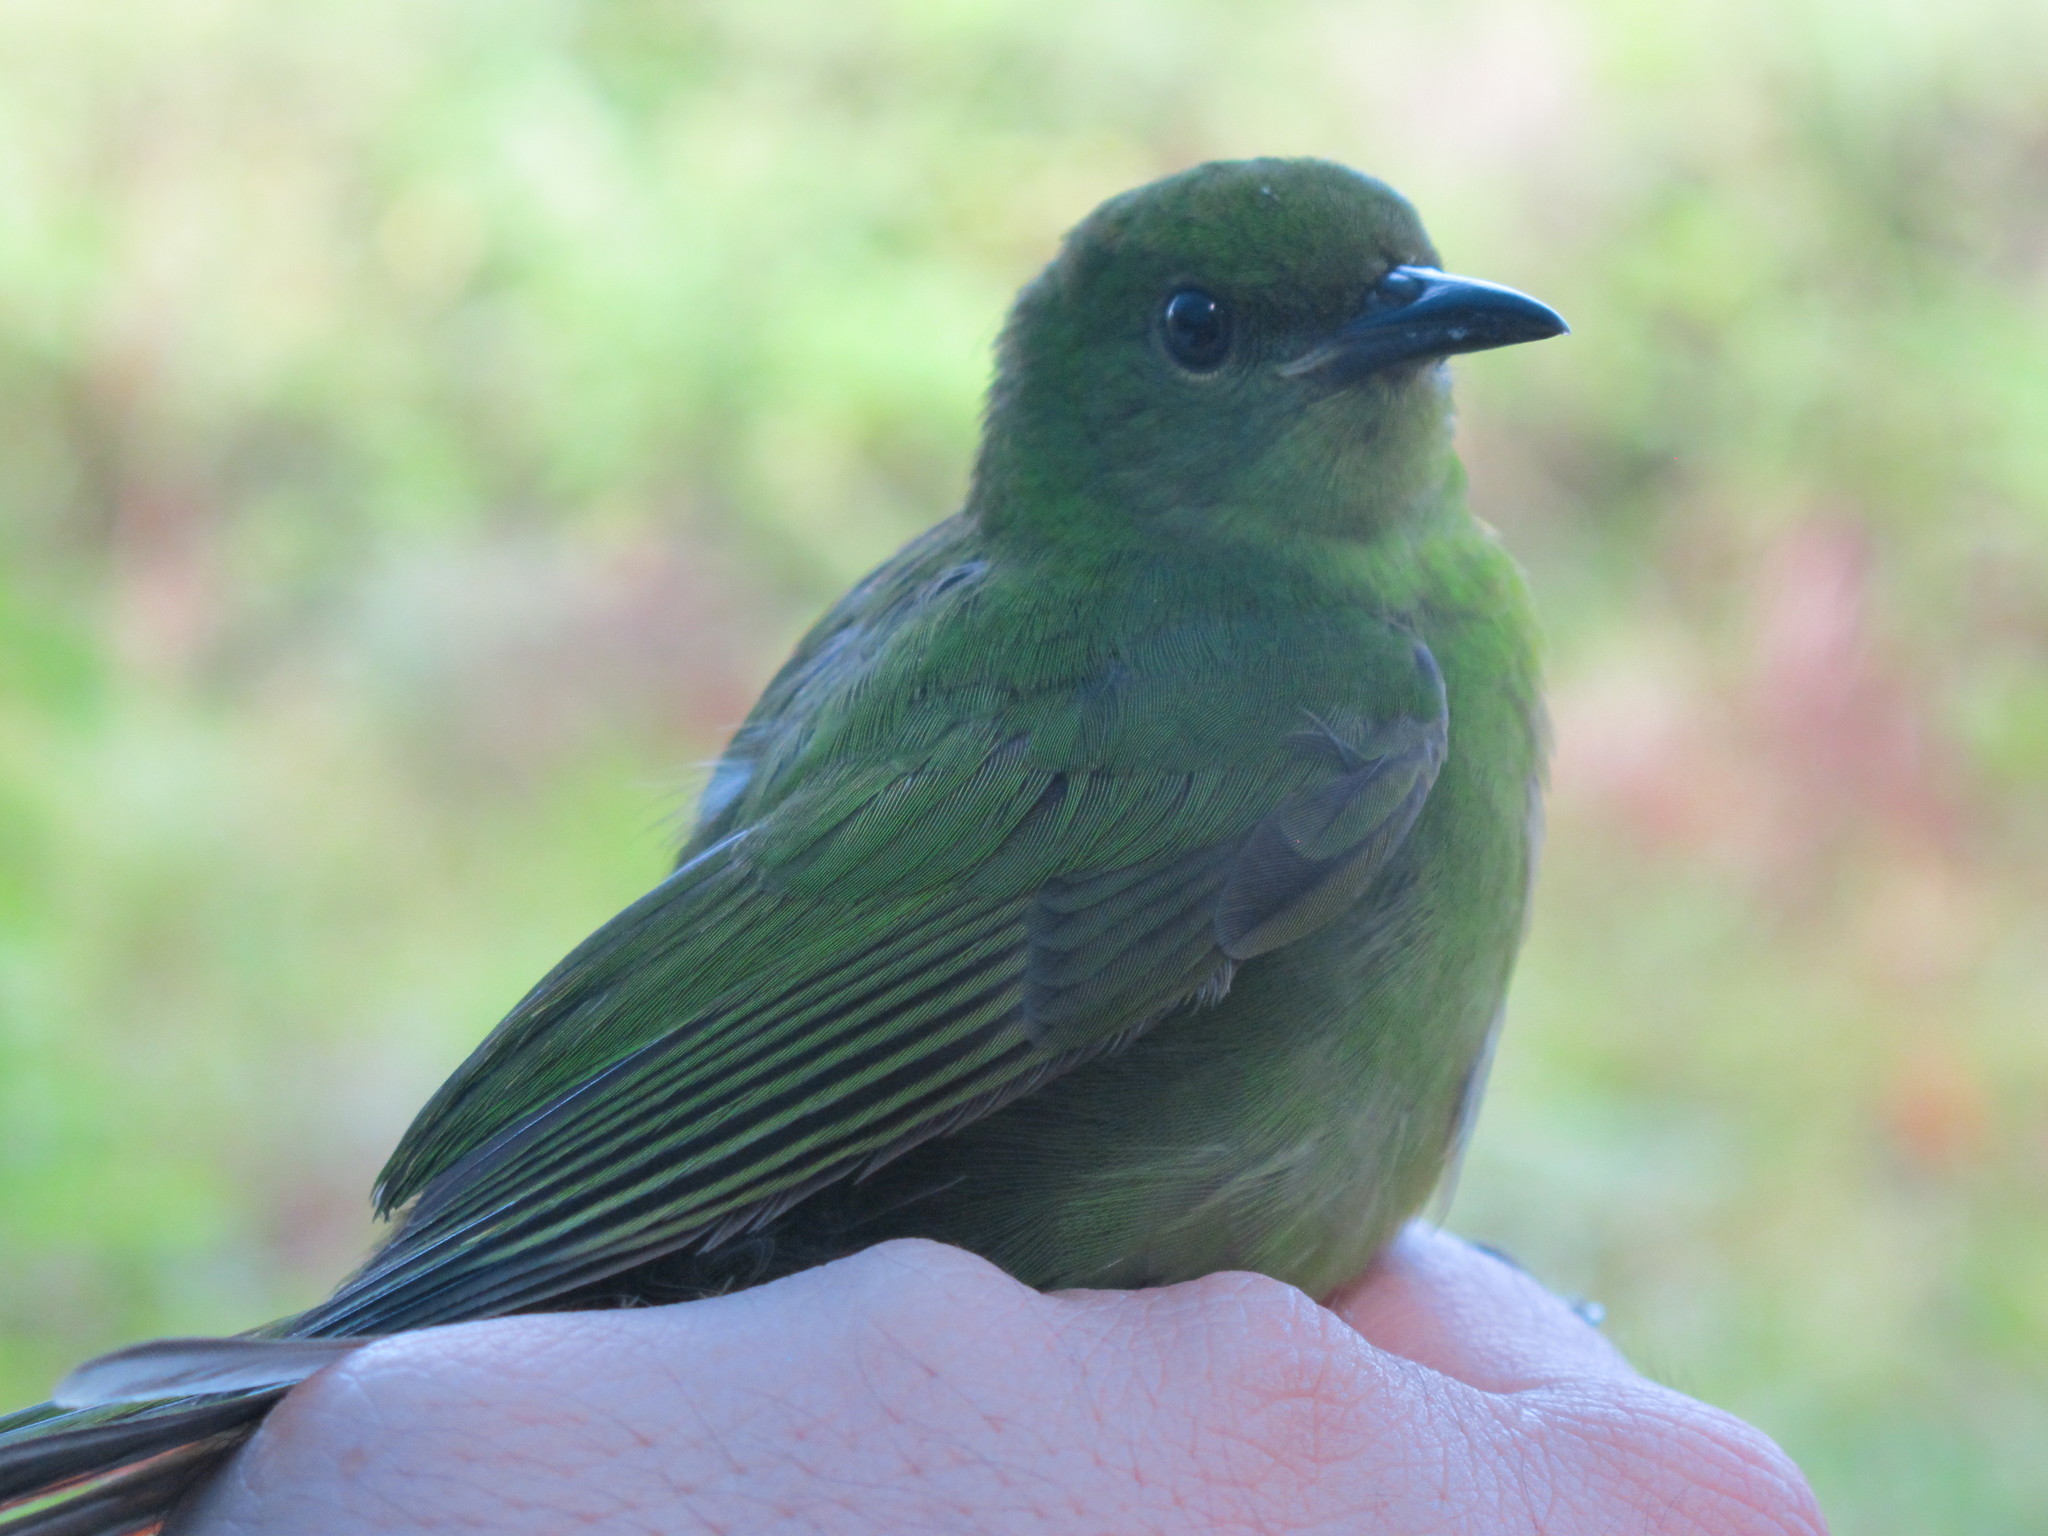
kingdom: Animalia
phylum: Chordata
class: Aves
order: Passeriformes
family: Thraupidae
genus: Chlorophanes
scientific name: Chlorophanes spiza
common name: Green honeycreeper
